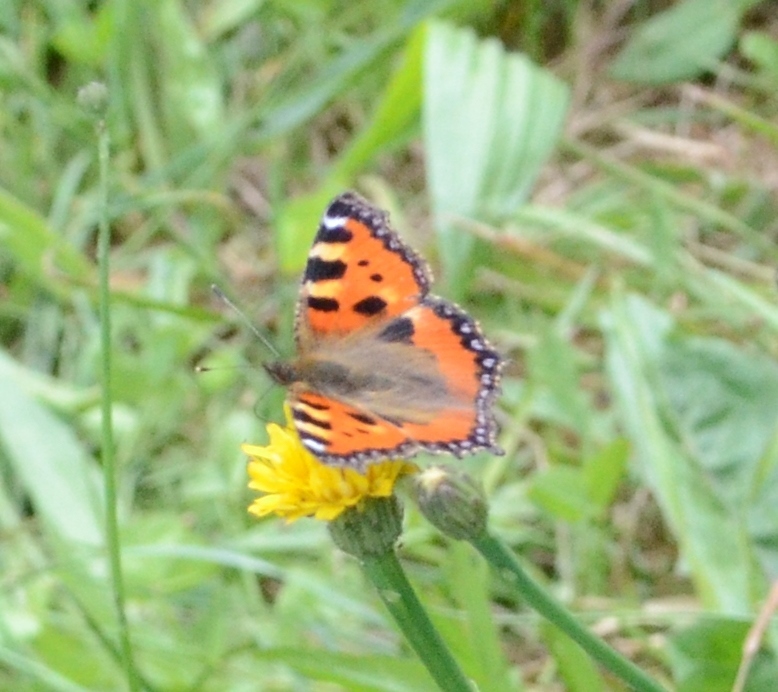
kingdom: Animalia
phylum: Arthropoda
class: Insecta
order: Lepidoptera
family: Nymphalidae
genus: Aglais
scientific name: Aglais urticae
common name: Small tortoiseshell
